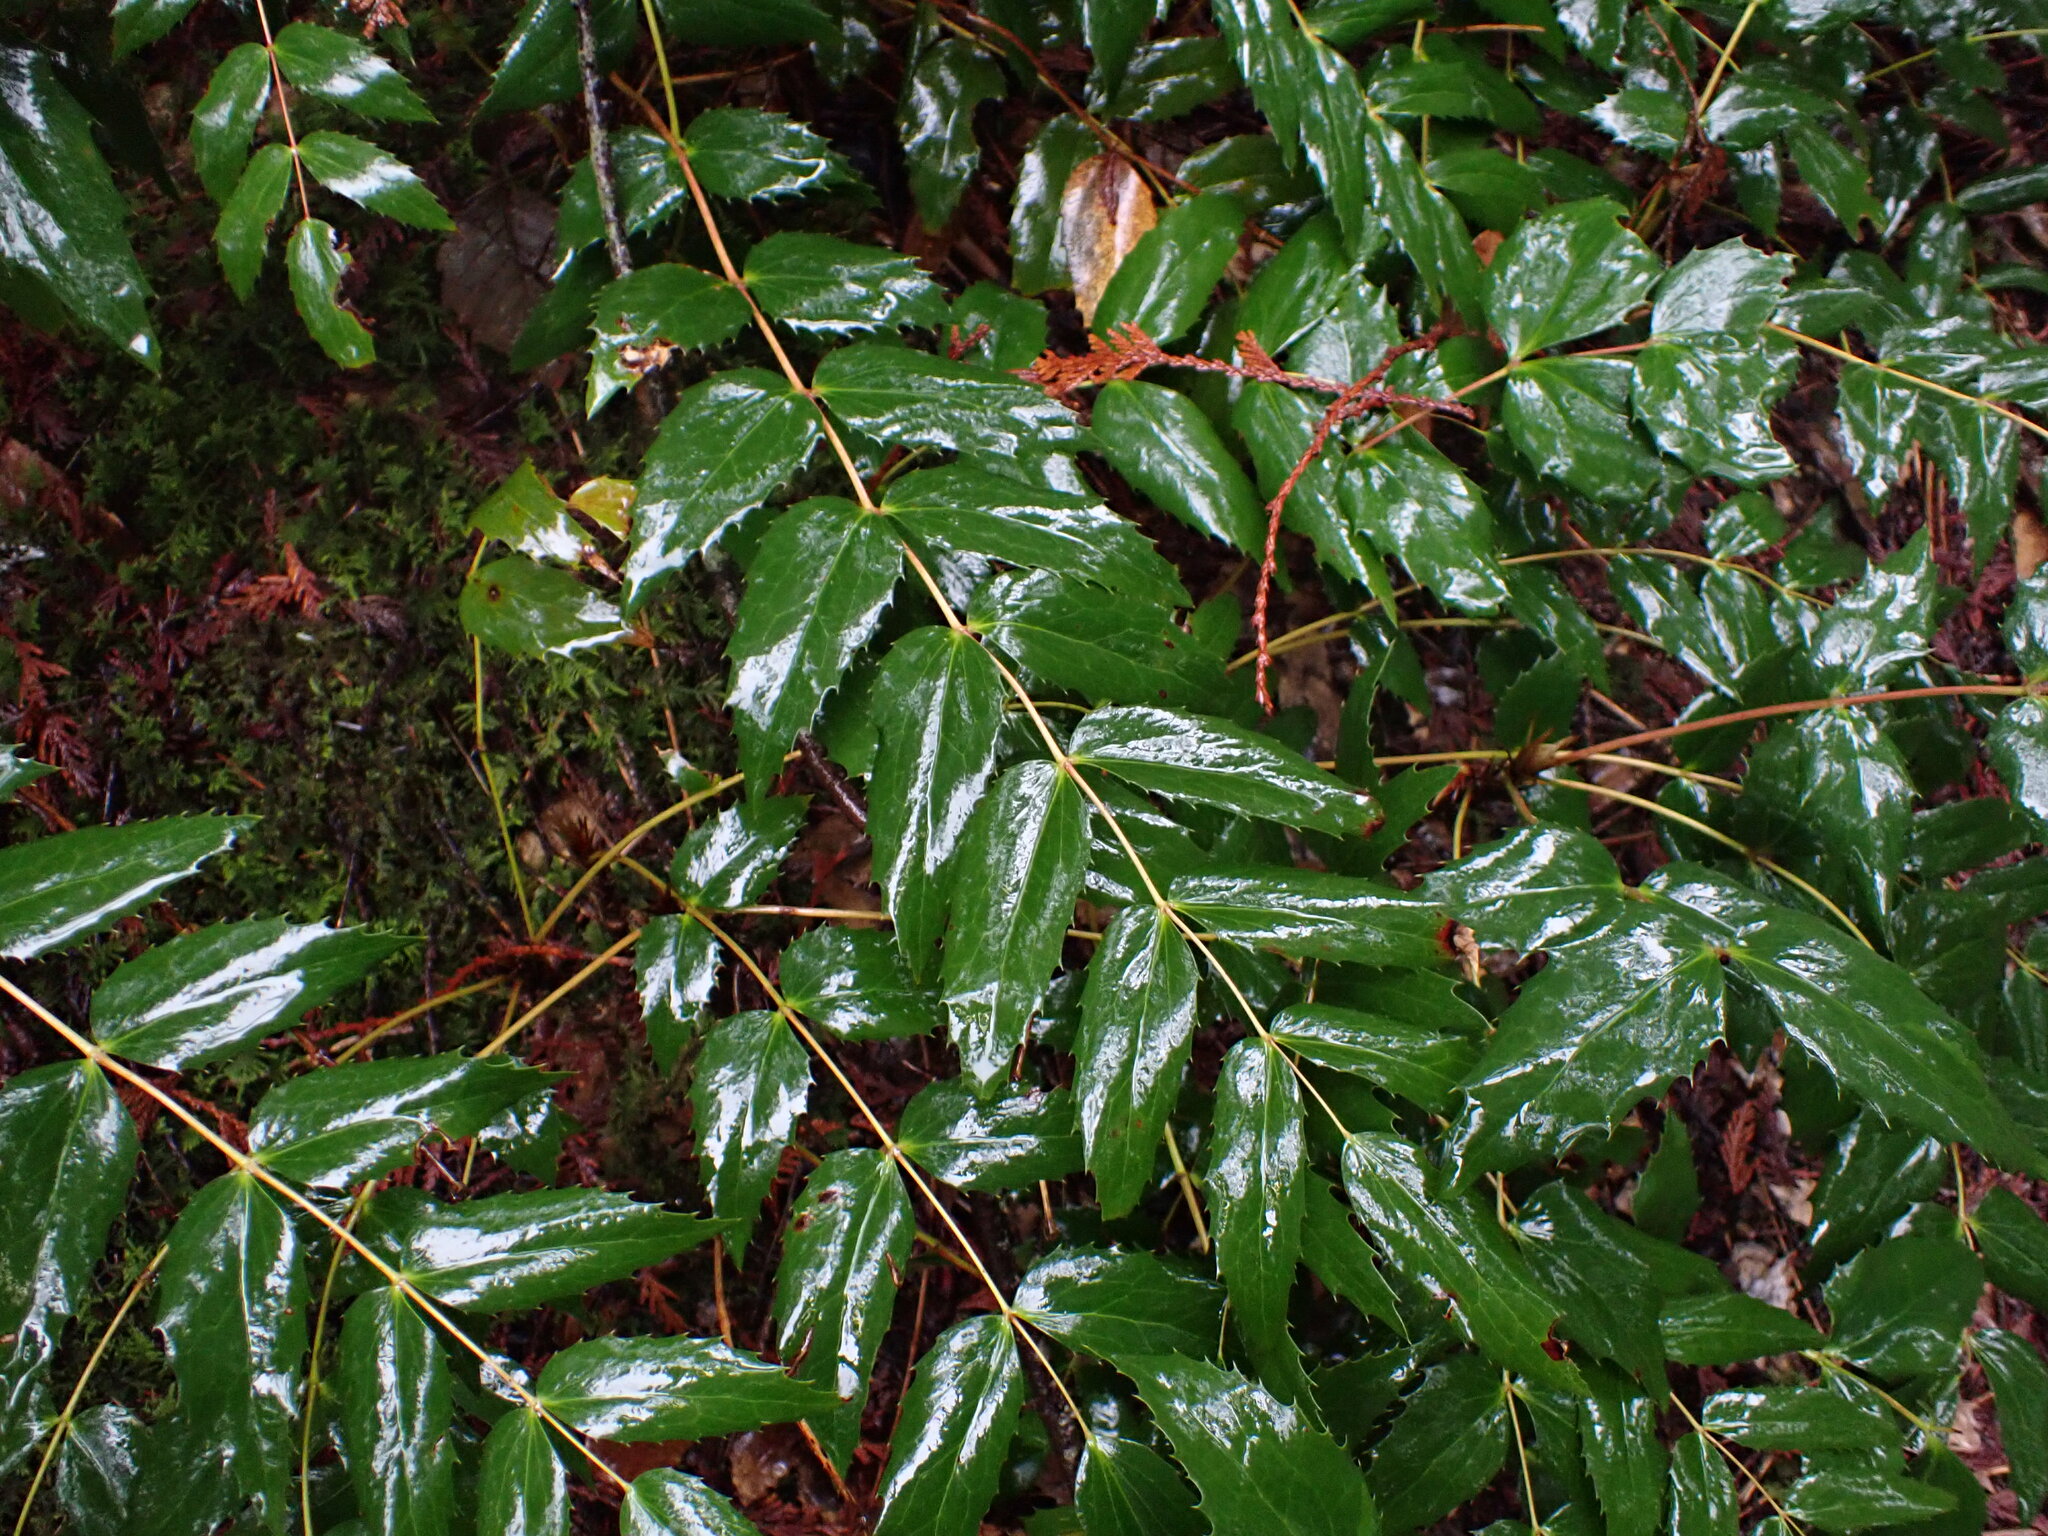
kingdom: Plantae
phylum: Tracheophyta
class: Magnoliopsida
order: Ranunculales
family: Berberidaceae
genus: Mahonia
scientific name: Mahonia nervosa
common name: Cascade oregon-grape
